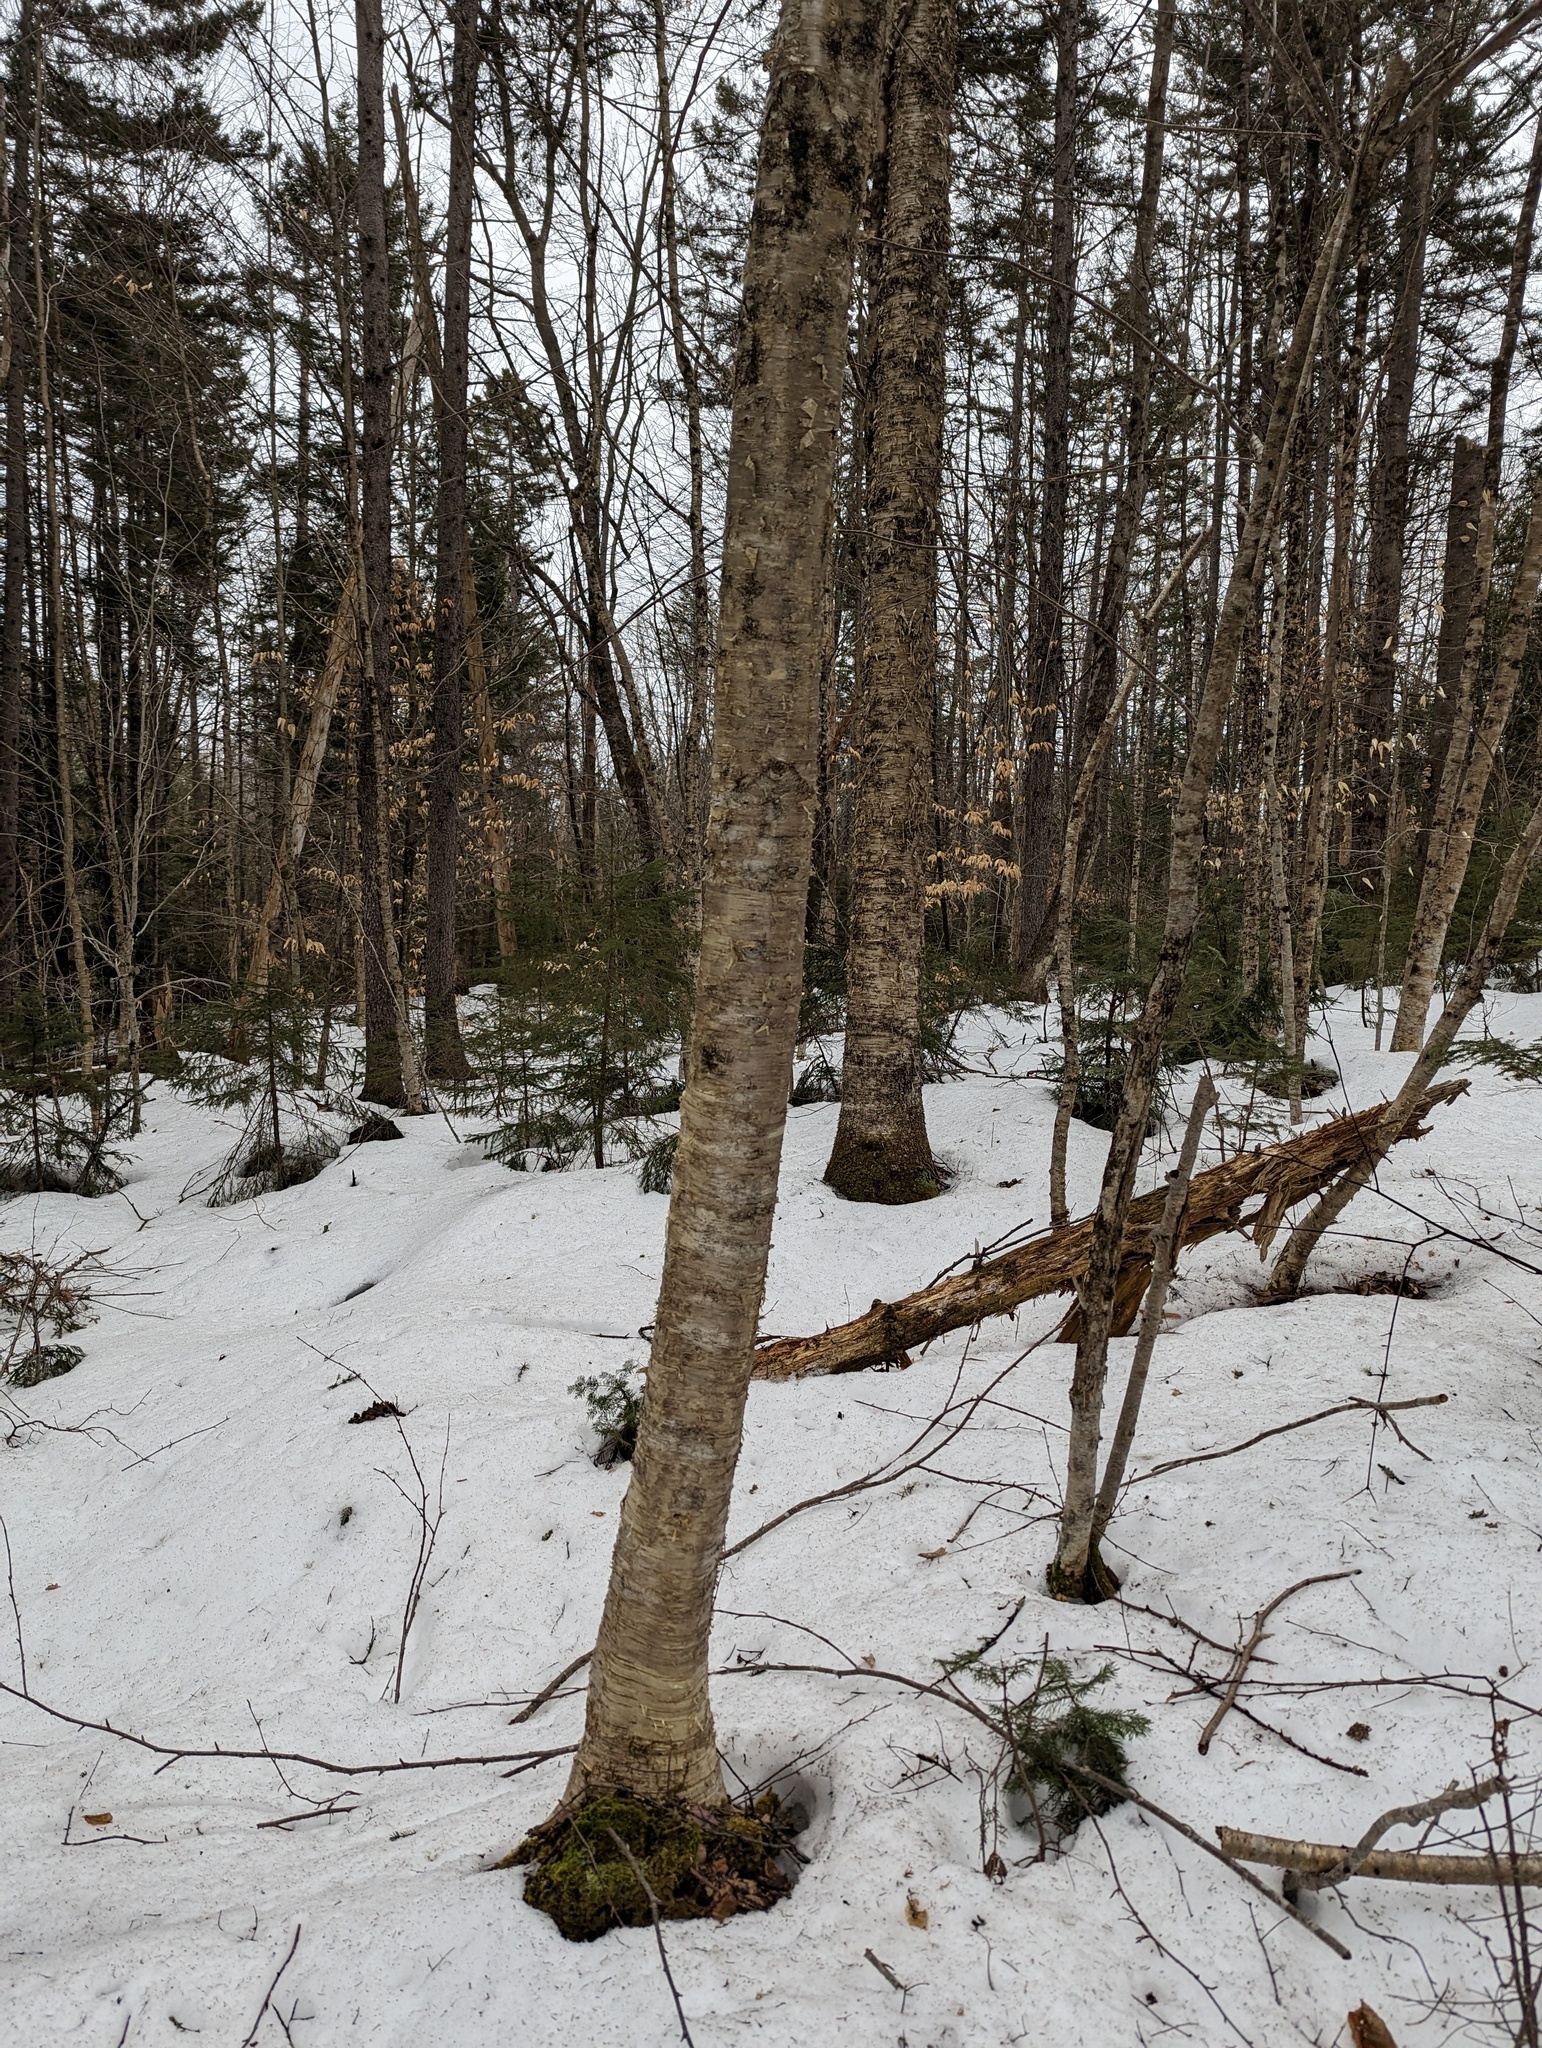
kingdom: Plantae
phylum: Tracheophyta
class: Magnoliopsida
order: Fagales
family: Betulaceae
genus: Betula
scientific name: Betula alleghaniensis
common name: Yellow birch
